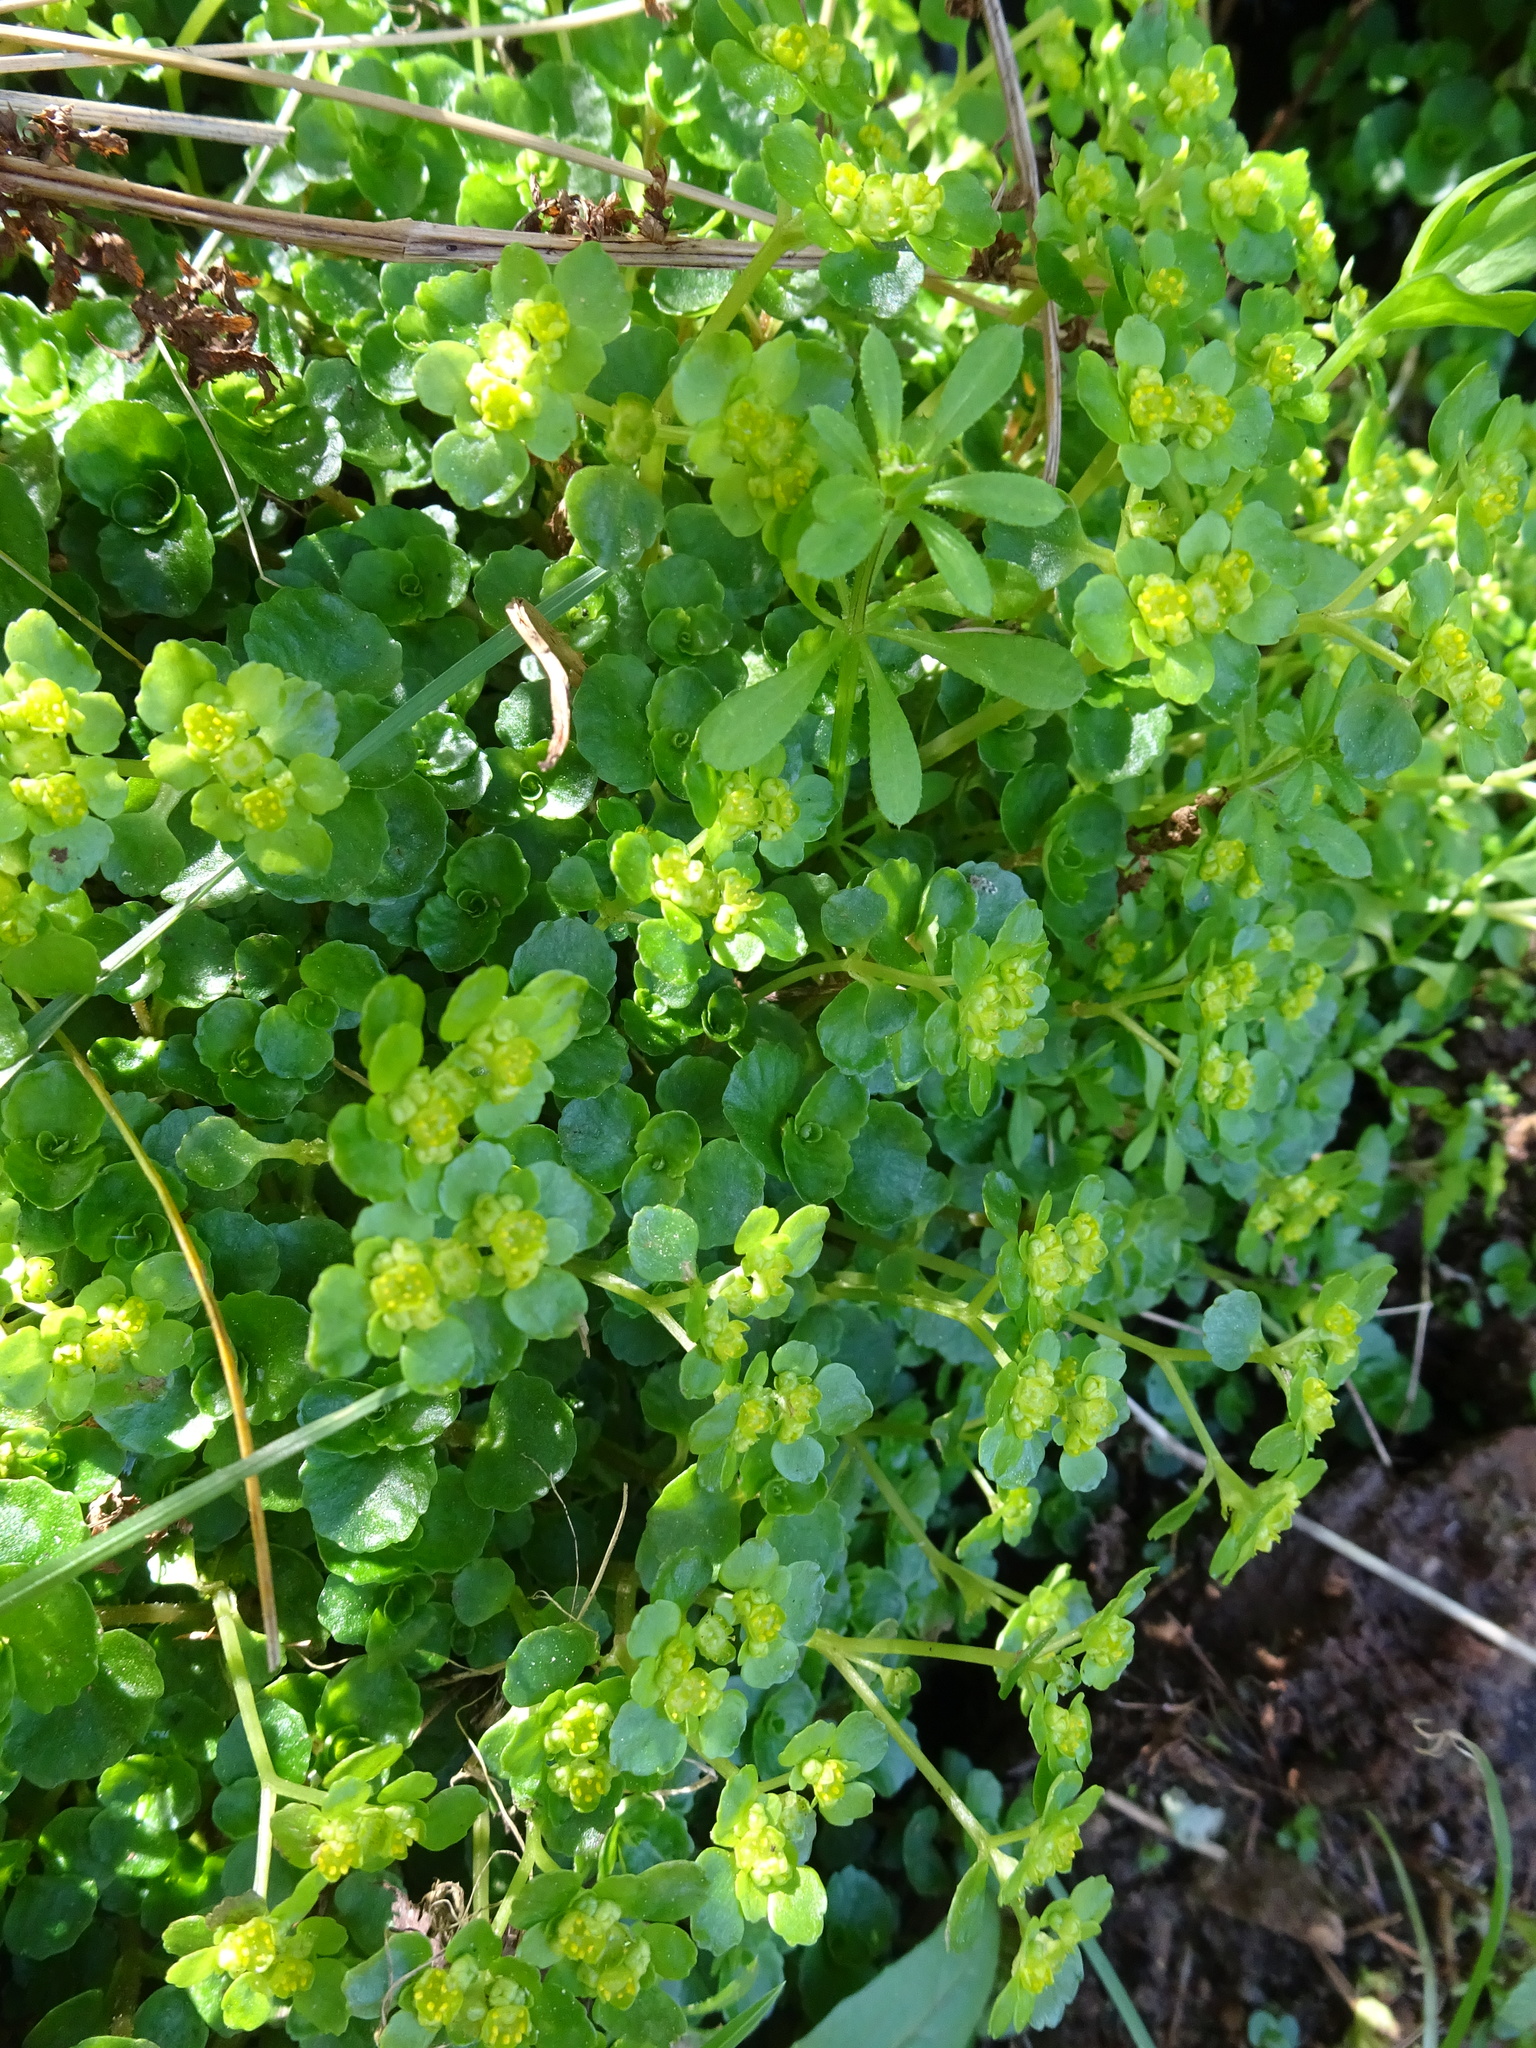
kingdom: Plantae
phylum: Tracheophyta
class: Magnoliopsida
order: Saxifragales
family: Saxifragaceae
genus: Chrysosplenium
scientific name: Chrysosplenium oppositifolium
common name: Opposite-leaved golden-saxifrage
